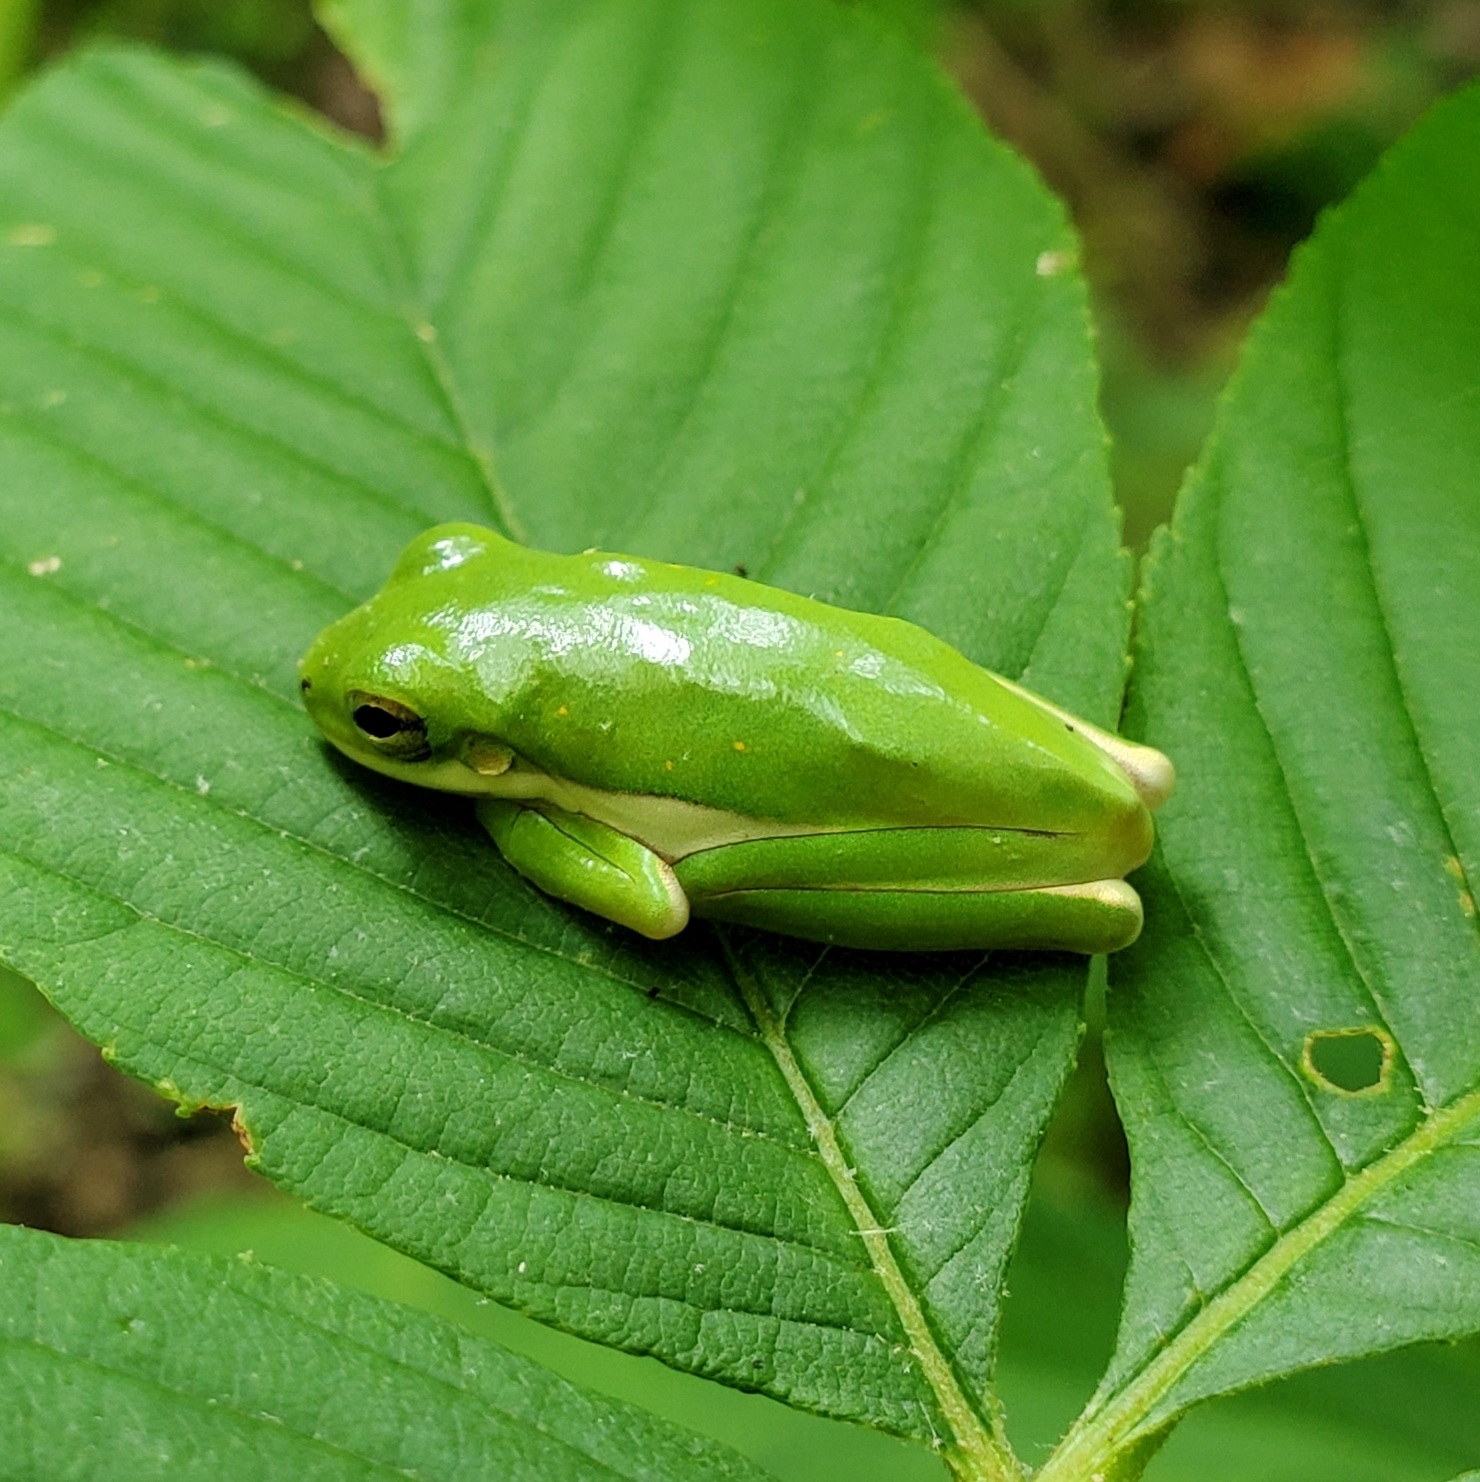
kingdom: Animalia
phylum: Chordata
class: Amphibia
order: Anura
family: Hylidae
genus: Dryophytes
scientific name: Dryophytes cinereus
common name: Green treefrog
